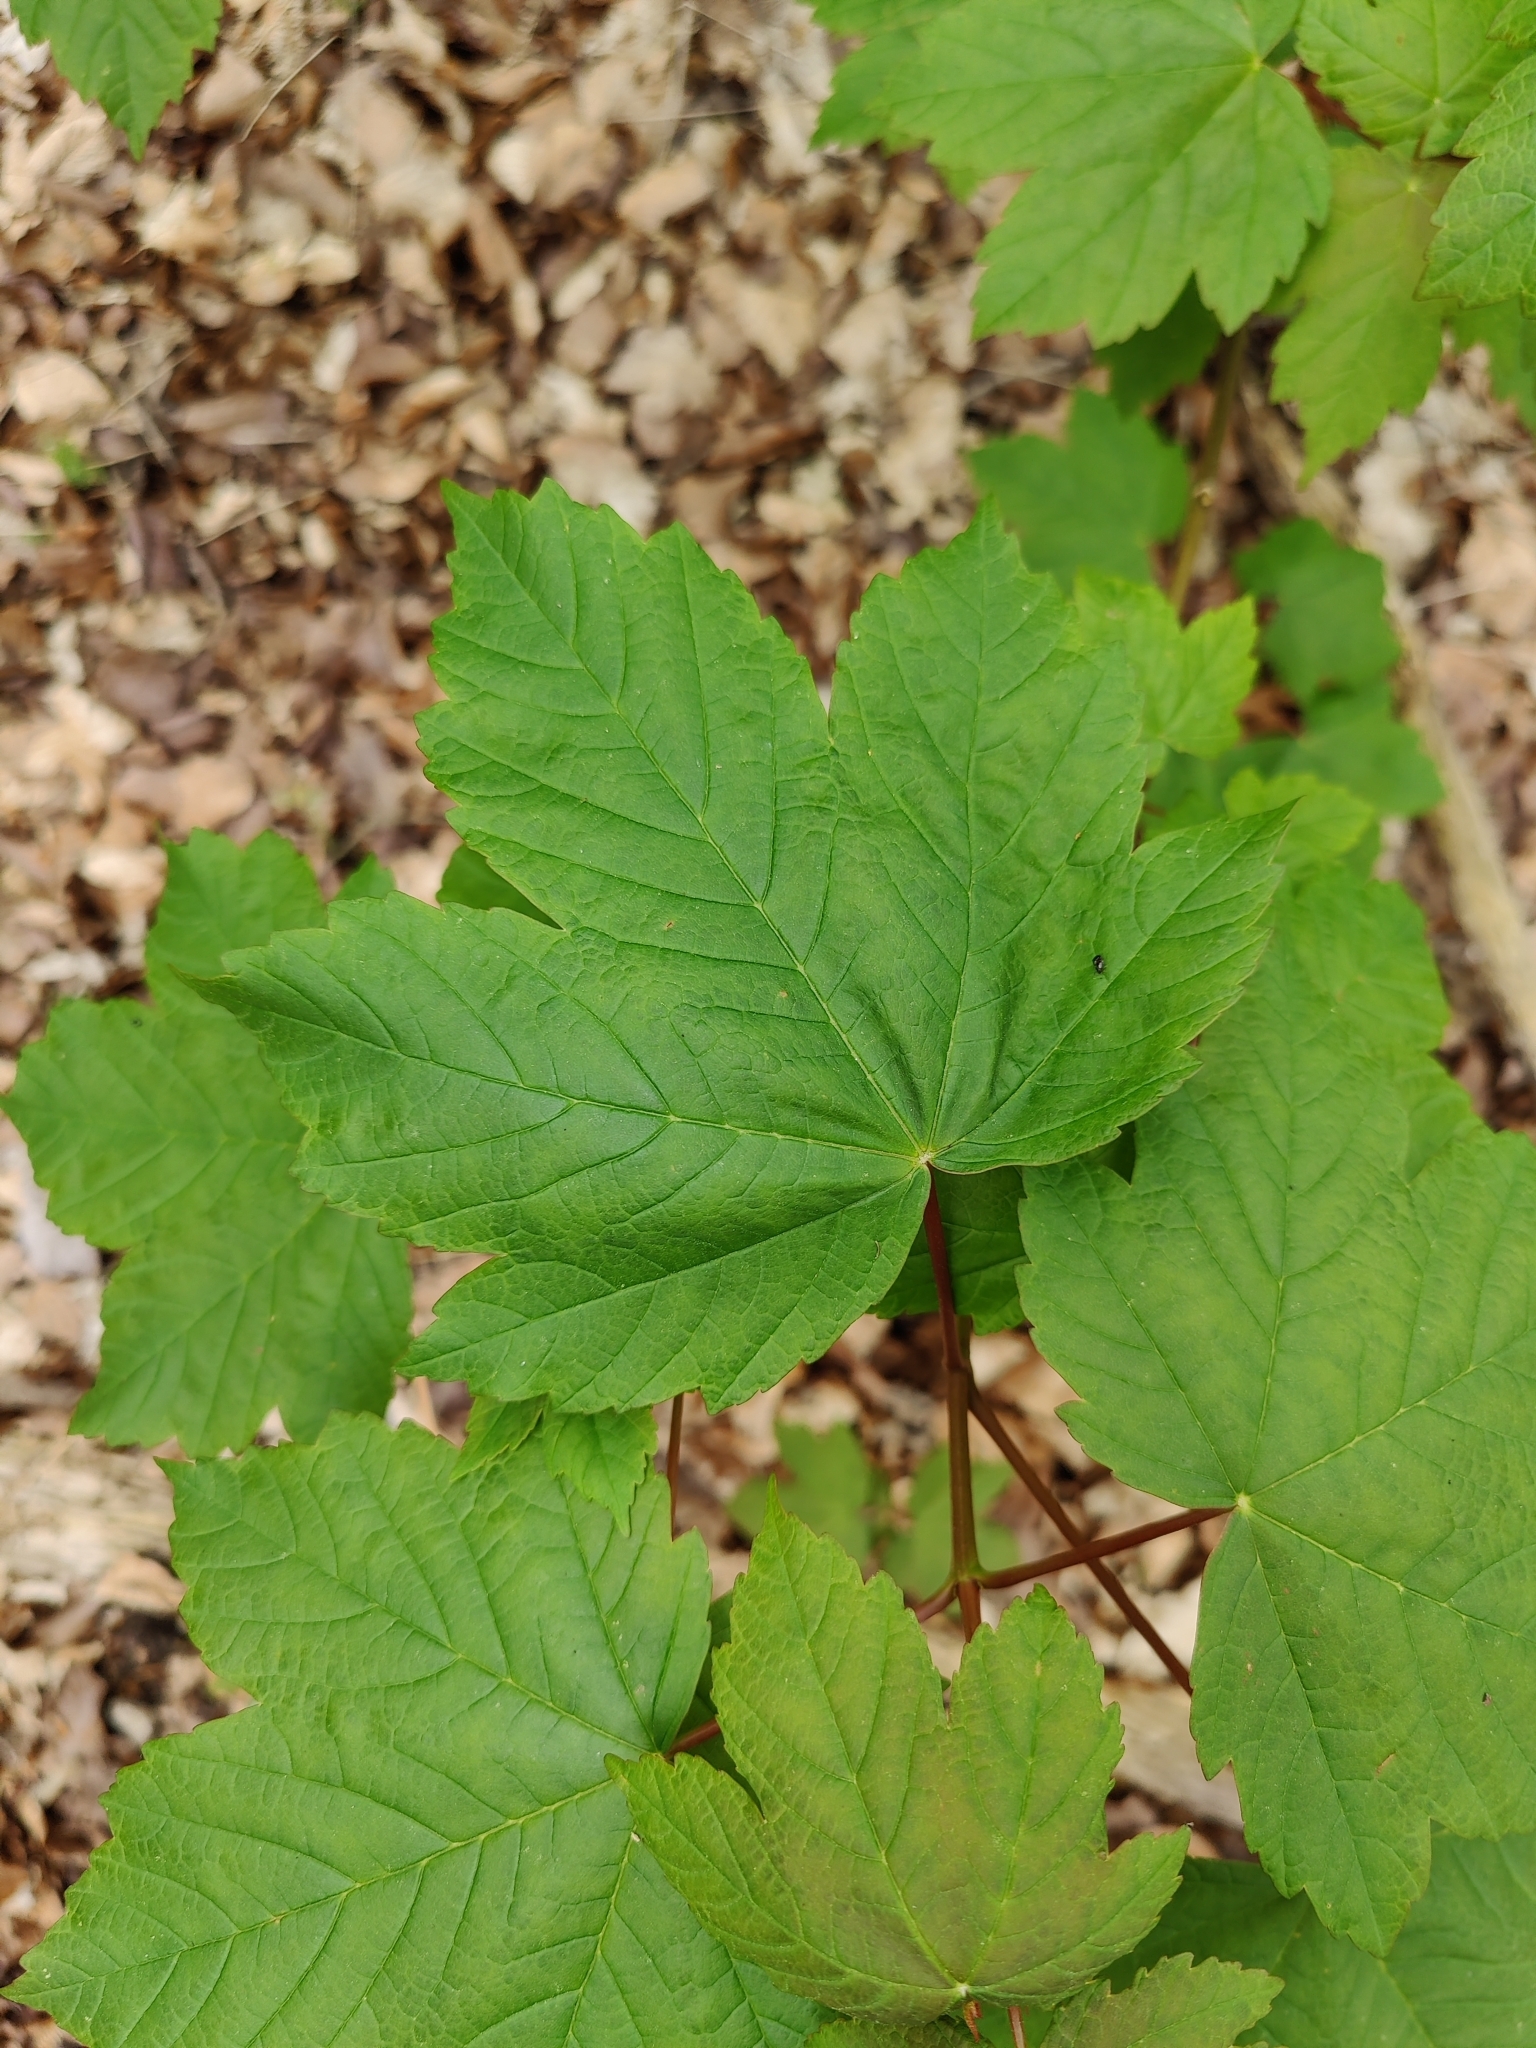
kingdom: Plantae
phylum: Tracheophyta
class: Magnoliopsida
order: Sapindales
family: Sapindaceae
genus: Acer
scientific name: Acer pseudoplatanus
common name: Sycamore
